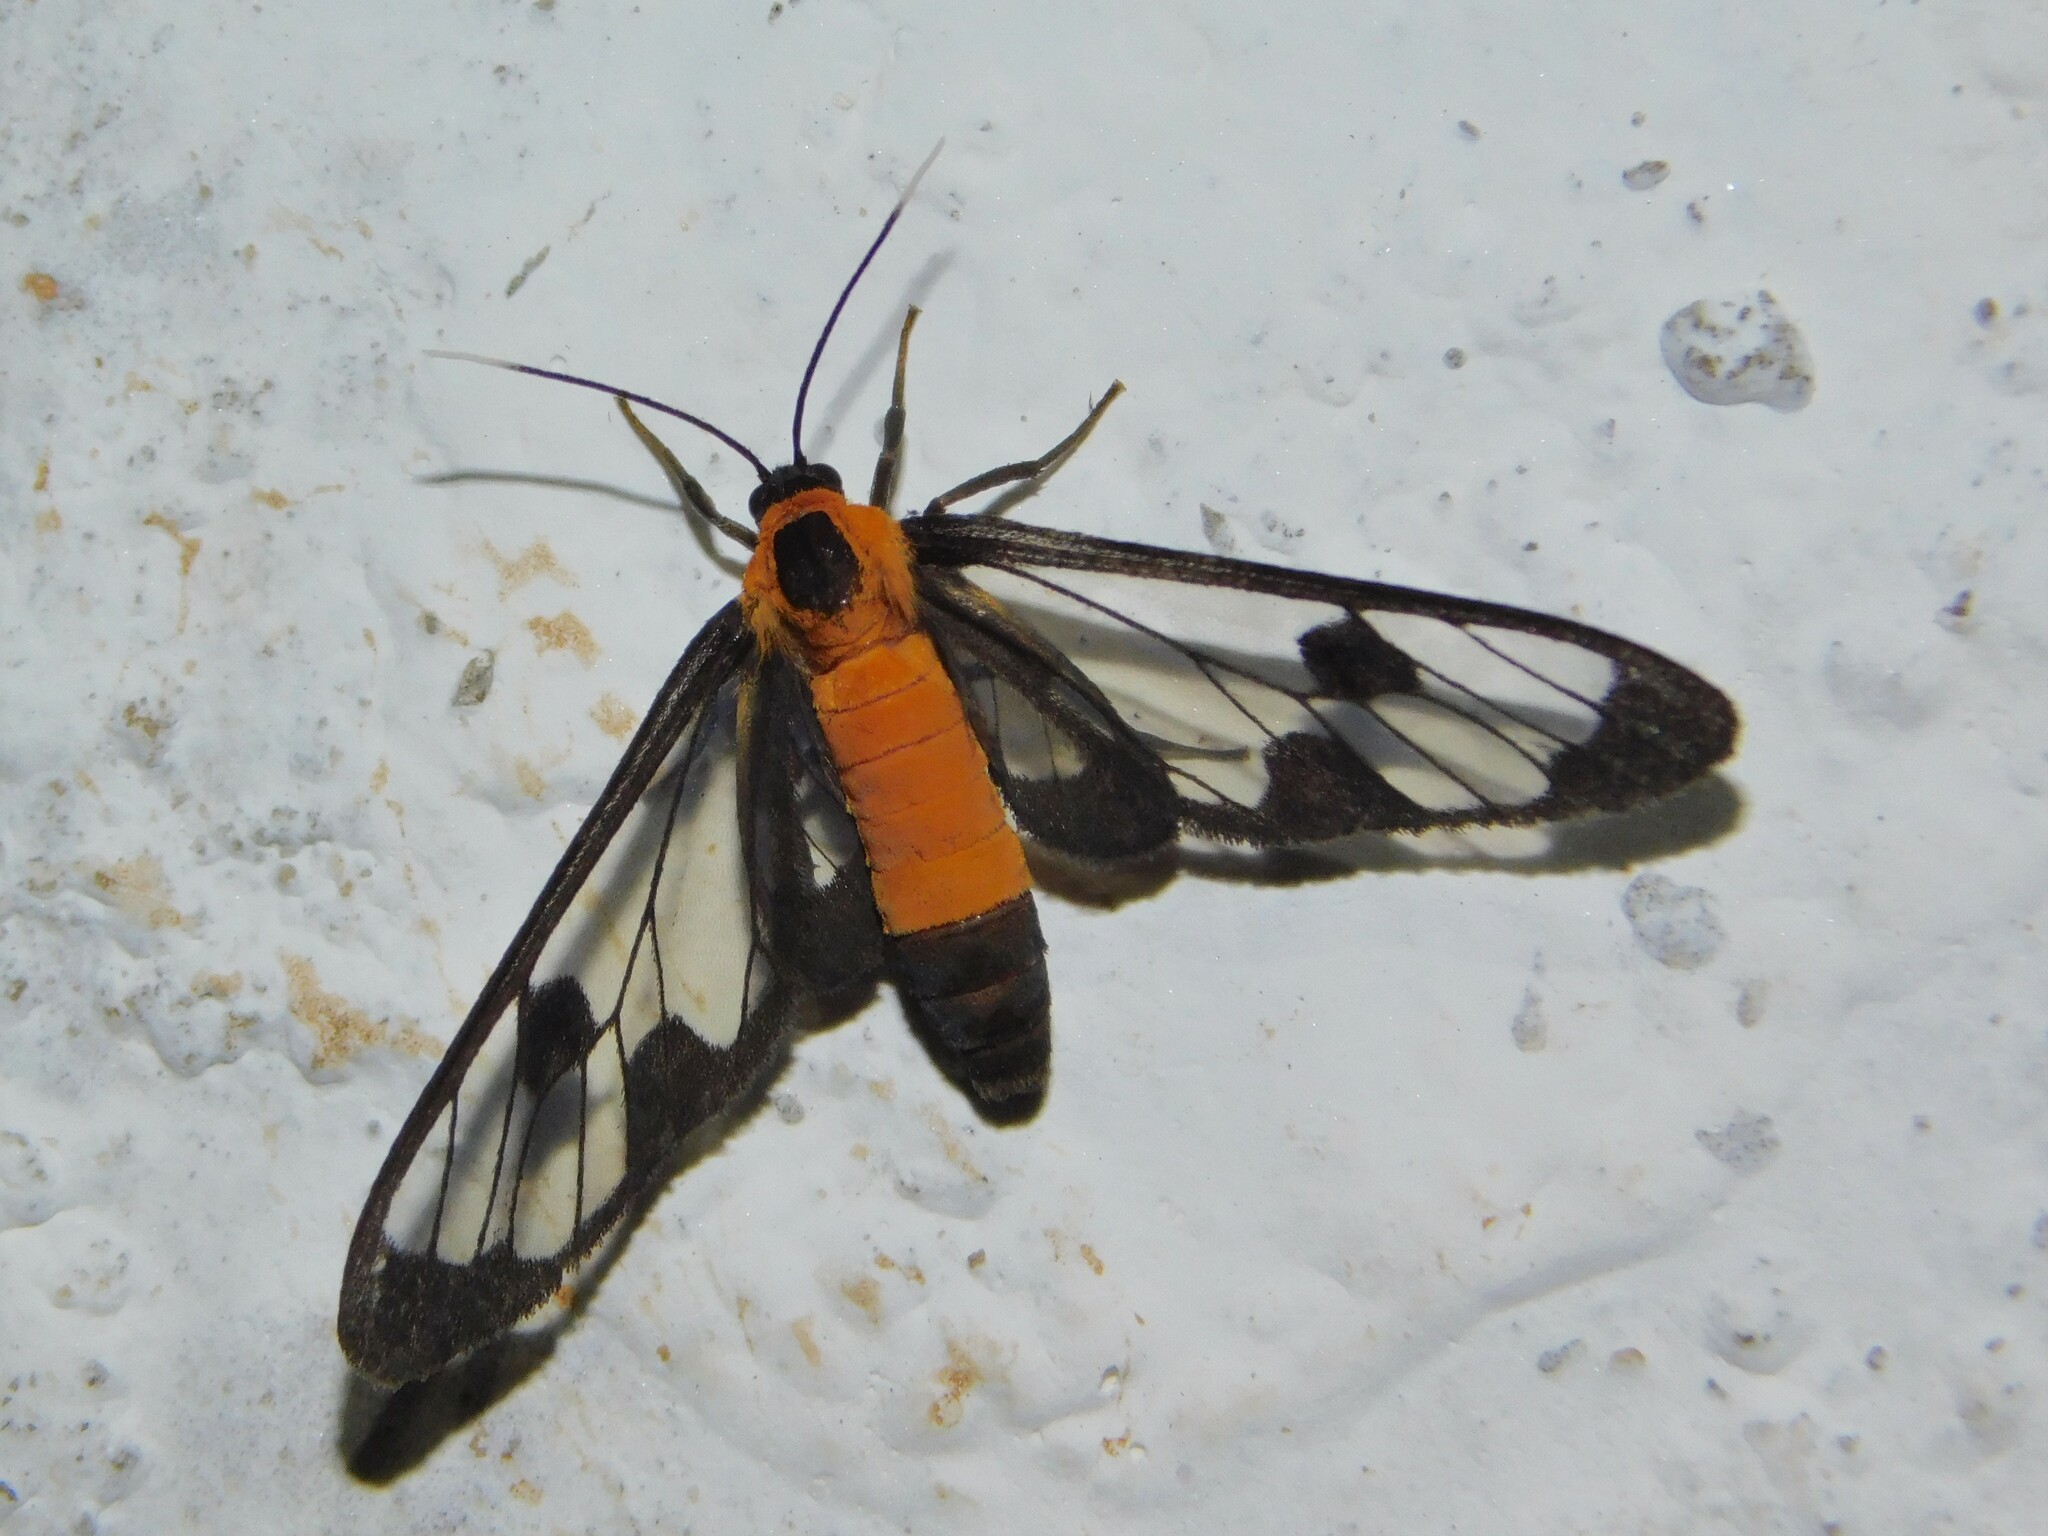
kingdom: Animalia
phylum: Arthropoda
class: Insecta
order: Lepidoptera
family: Erebidae
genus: Myopsyche
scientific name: Myopsyche meyi
